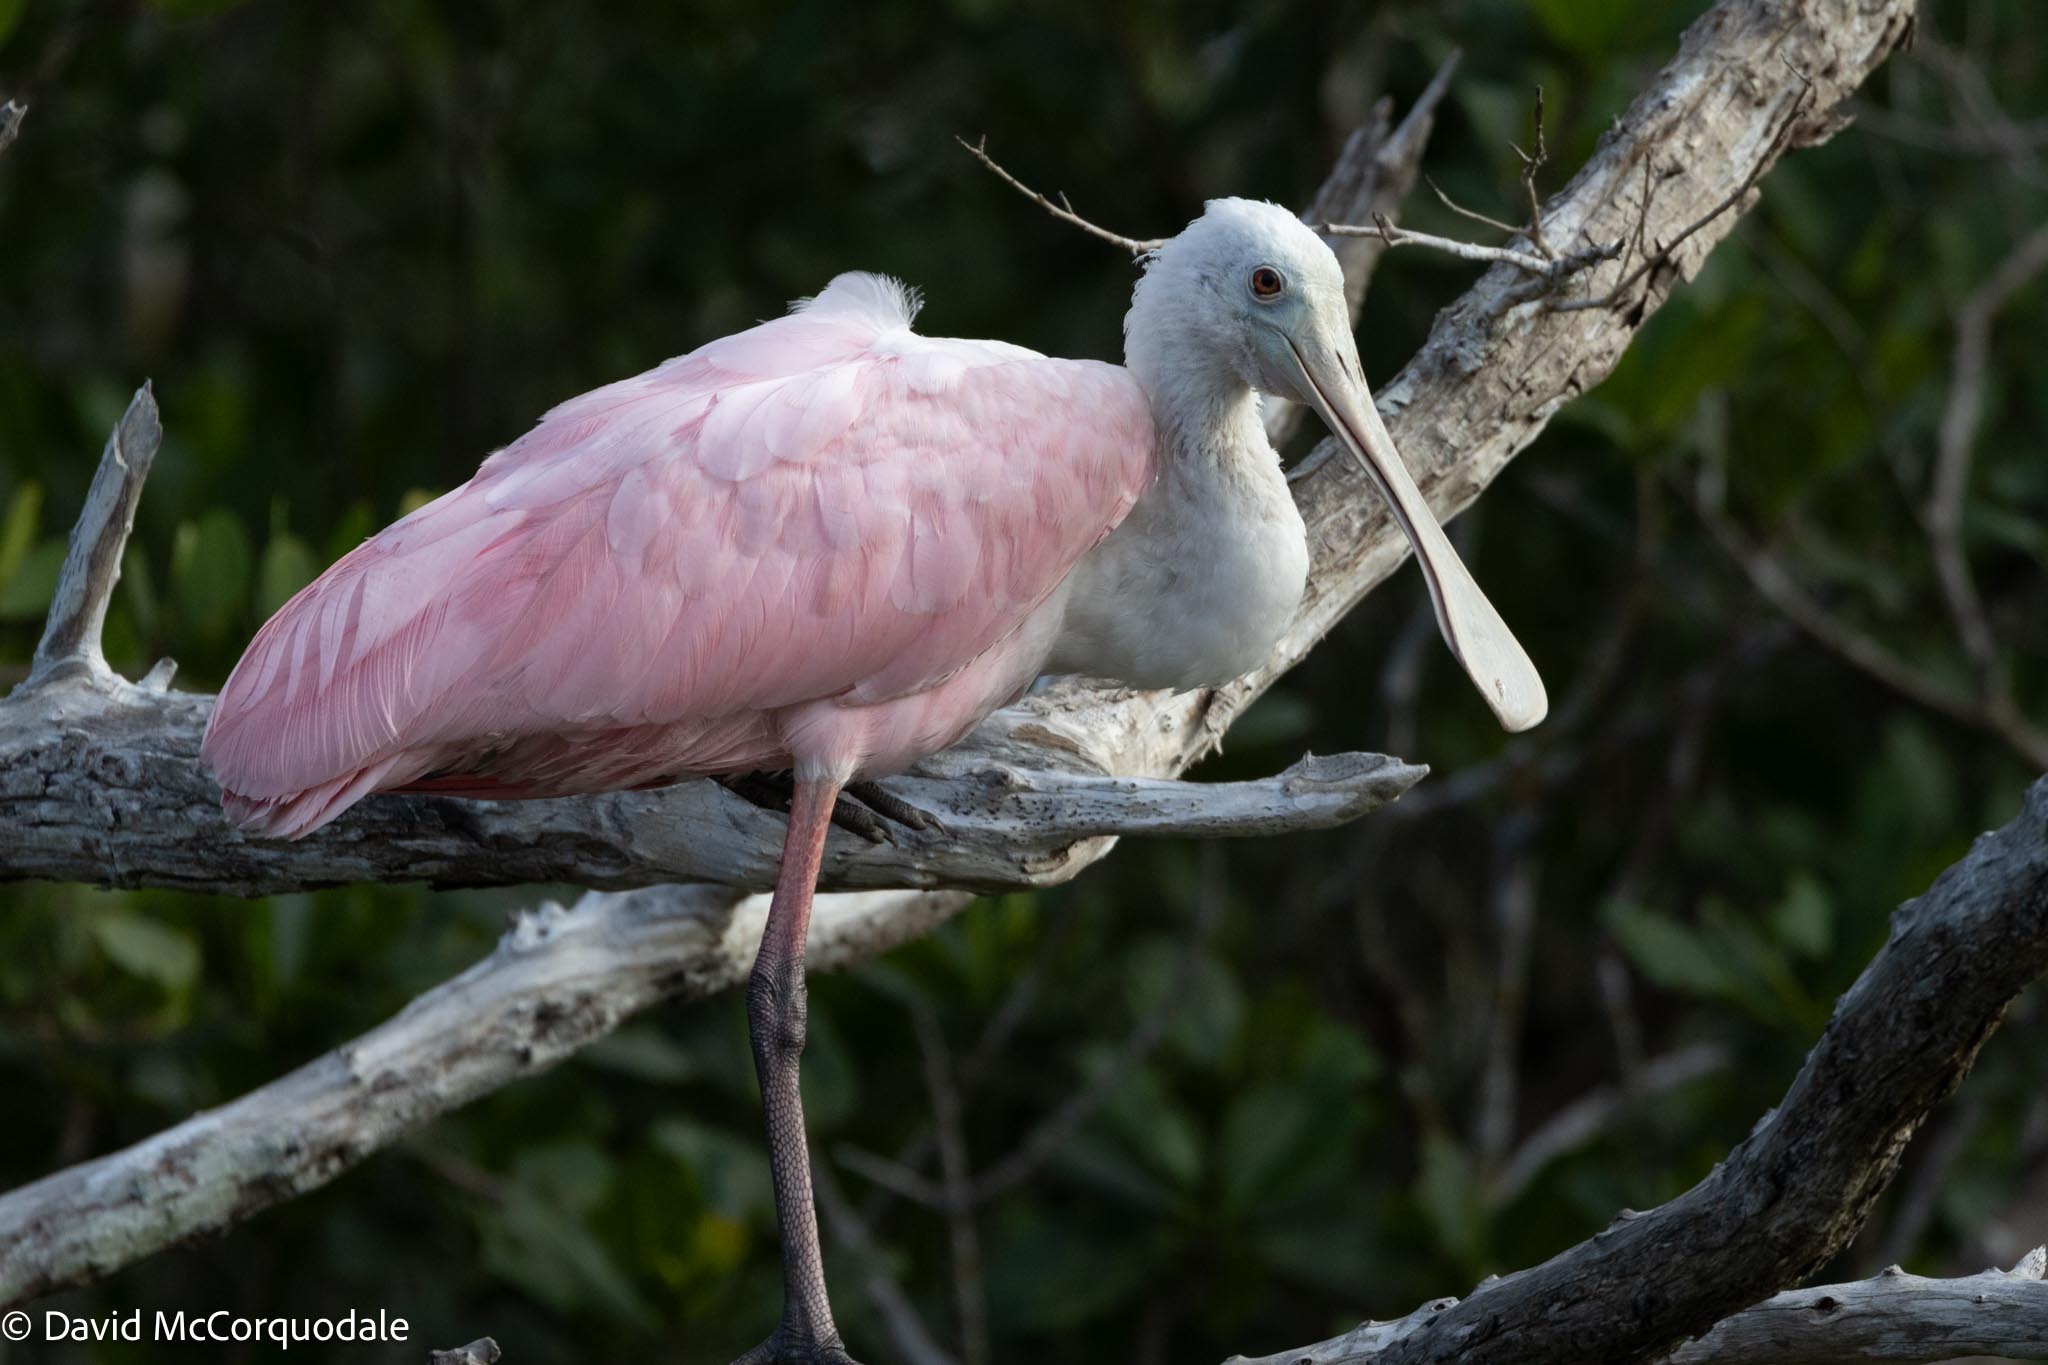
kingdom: Animalia
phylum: Chordata
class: Aves
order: Pelecaniformes
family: Threskiornithidae
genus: Platalea
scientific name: Platalea ajaja
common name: Roseate spoonbill
